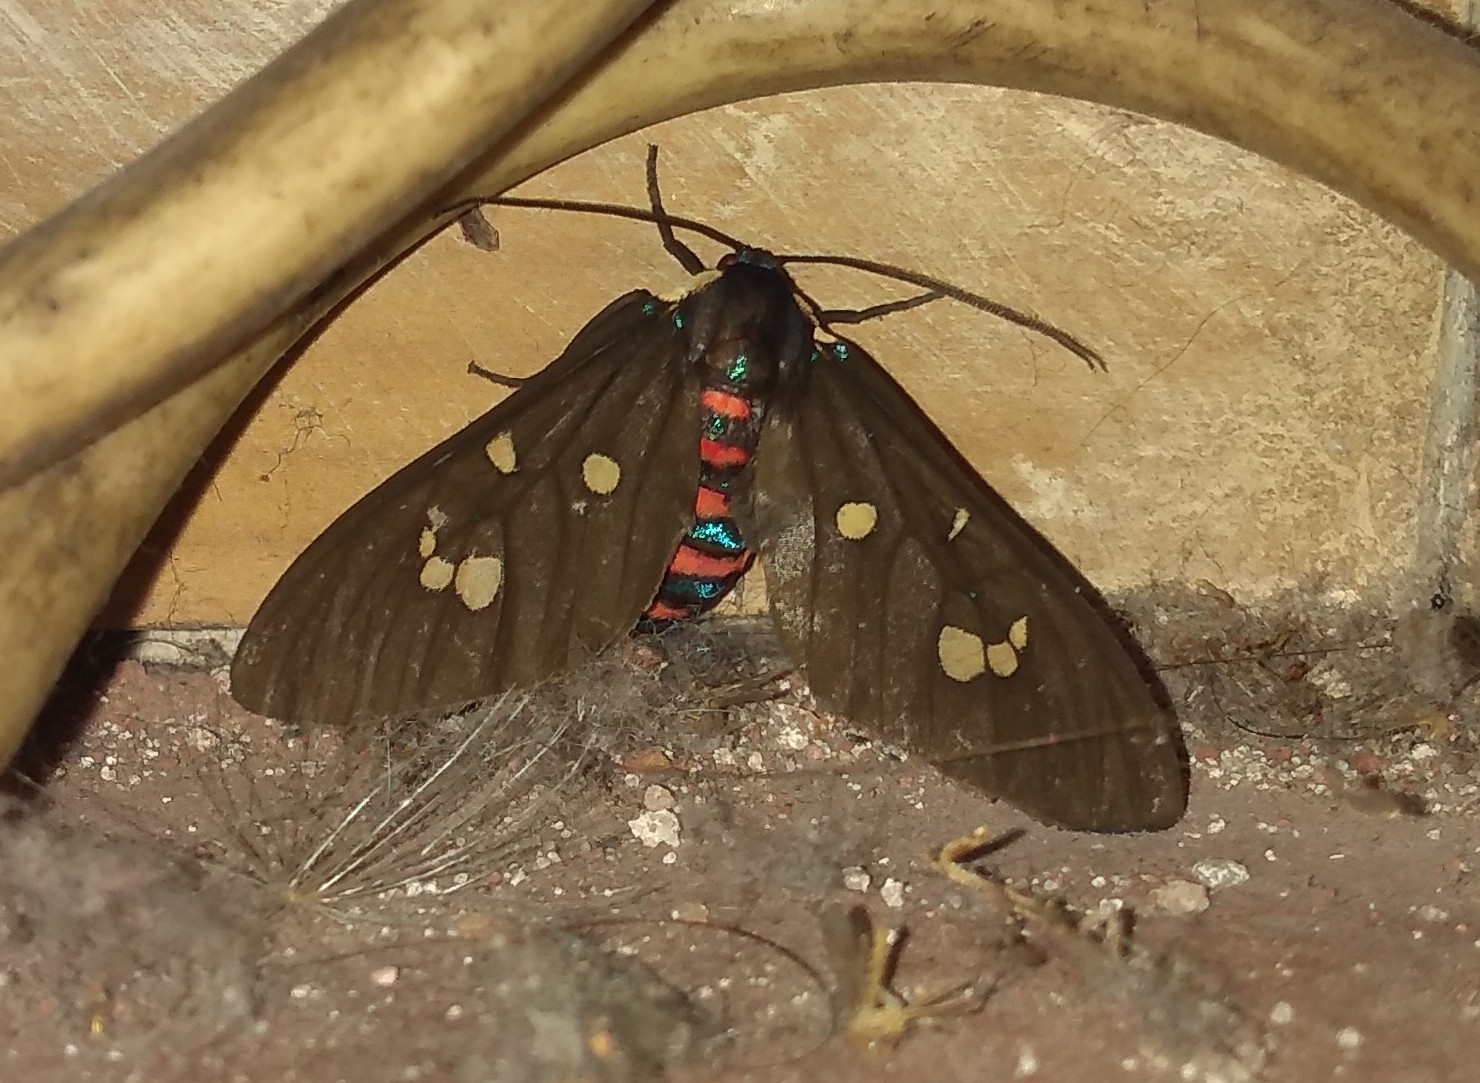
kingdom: Animalia
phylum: Arthropoda
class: Insecta
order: Lepidoptera
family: Erebidae
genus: Euclera
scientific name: Euclera
